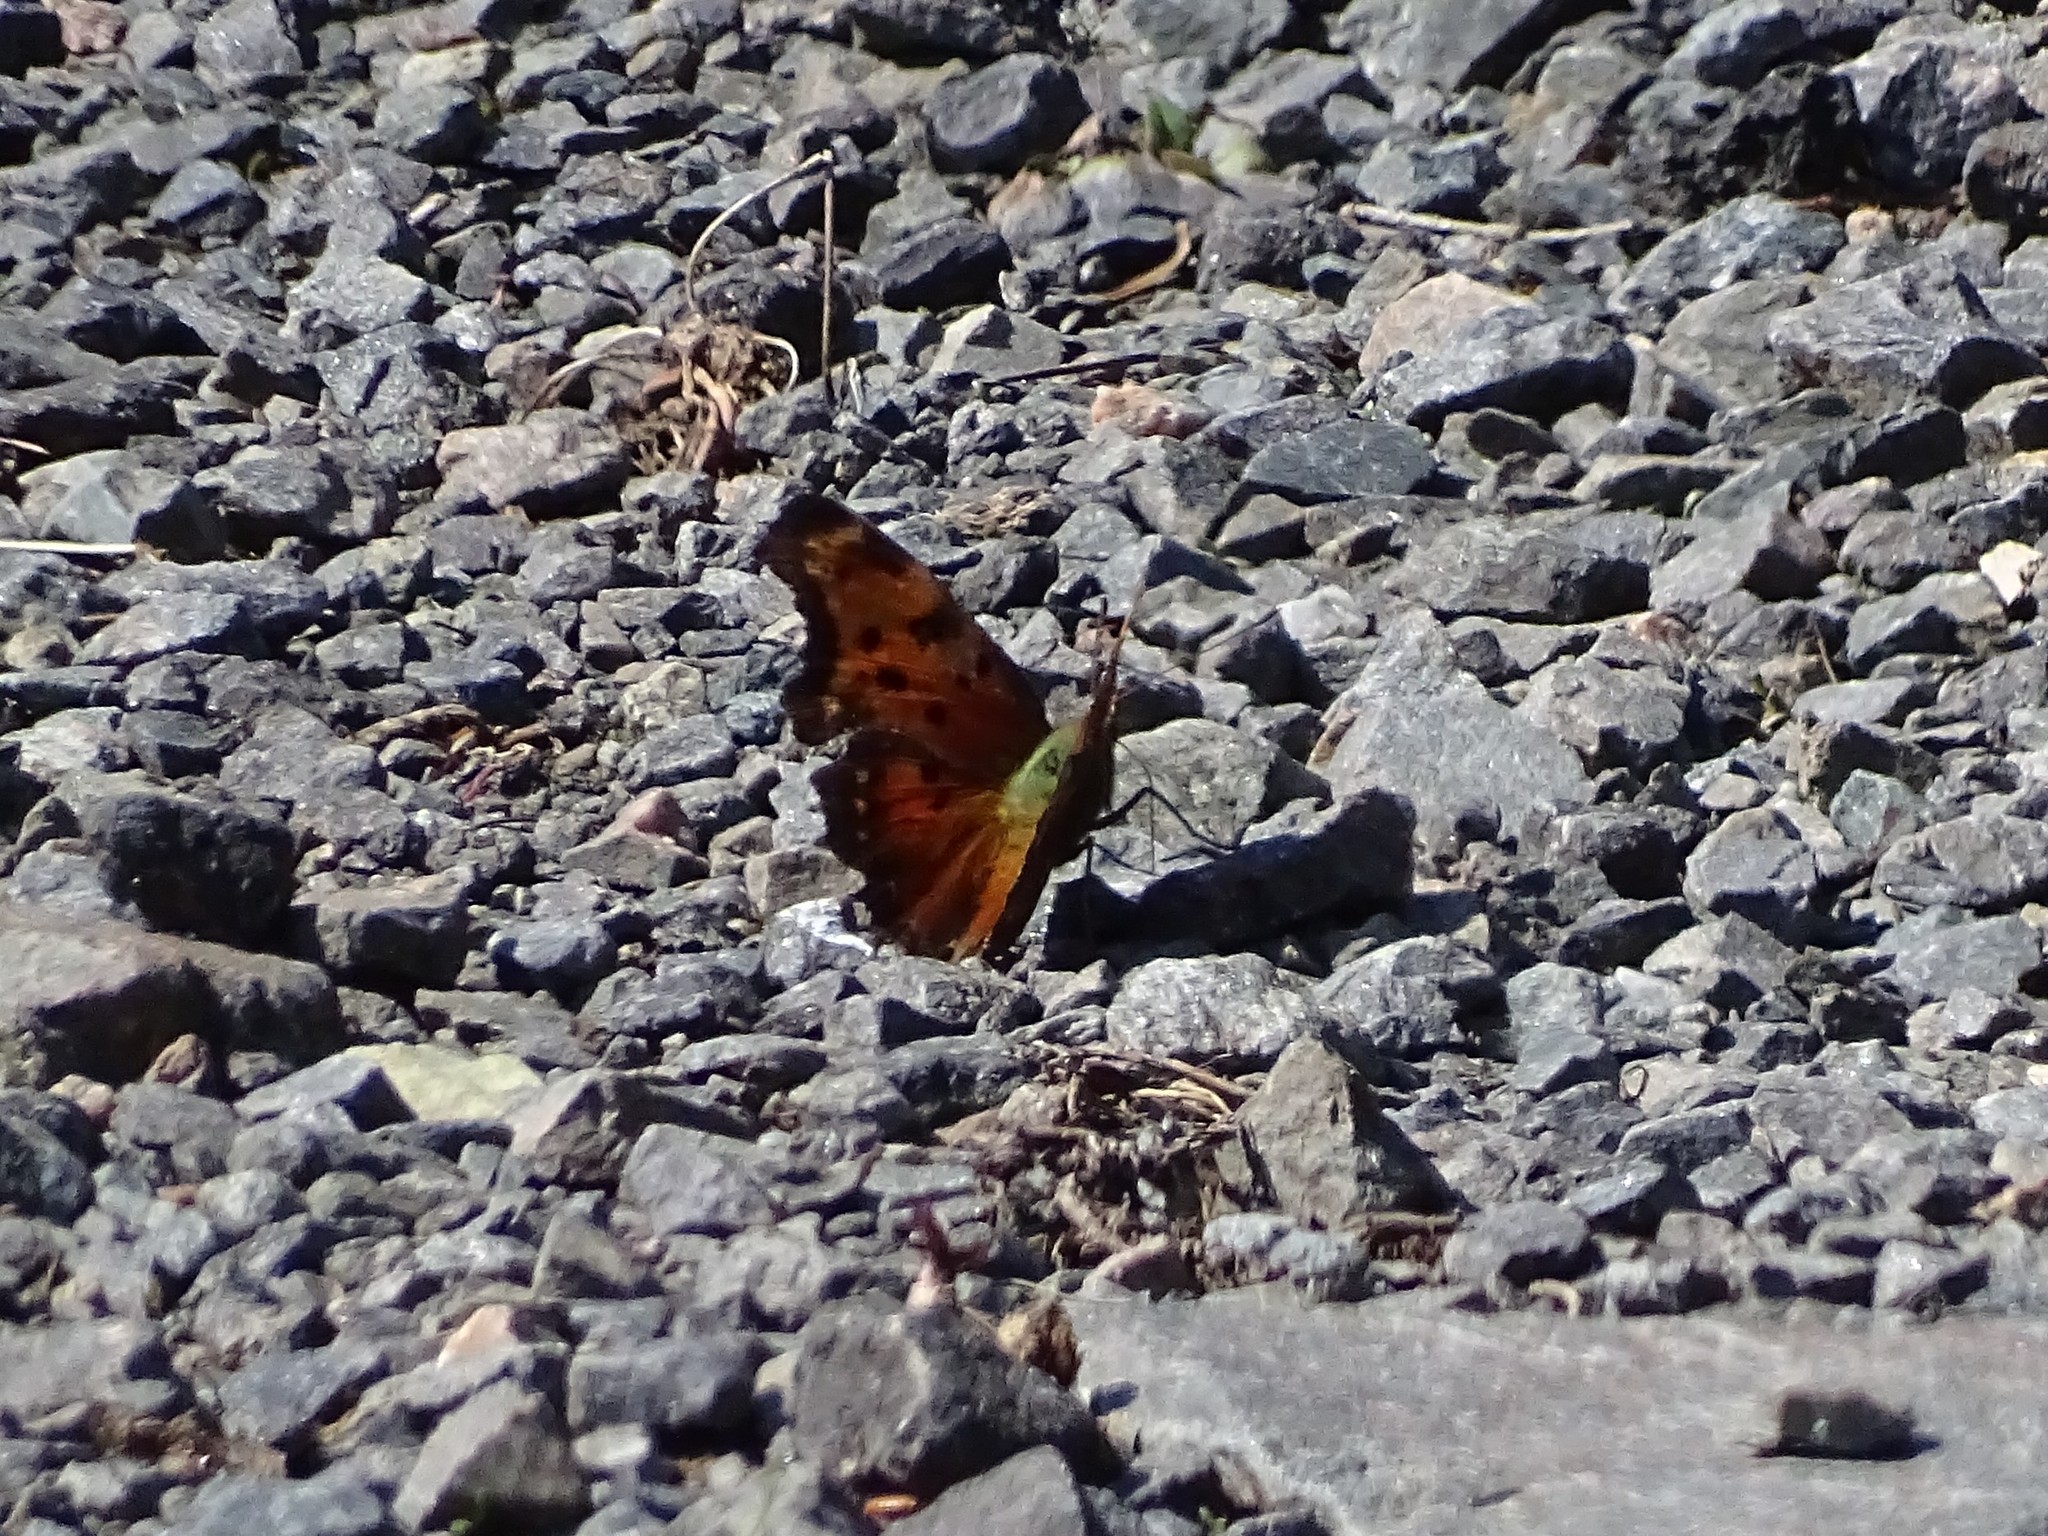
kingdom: Animalia
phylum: Arthropoda
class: Insecta
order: Lepidoptera
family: Nymphalidae
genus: Polygonia
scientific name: Polygonia progne
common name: Gray comma
